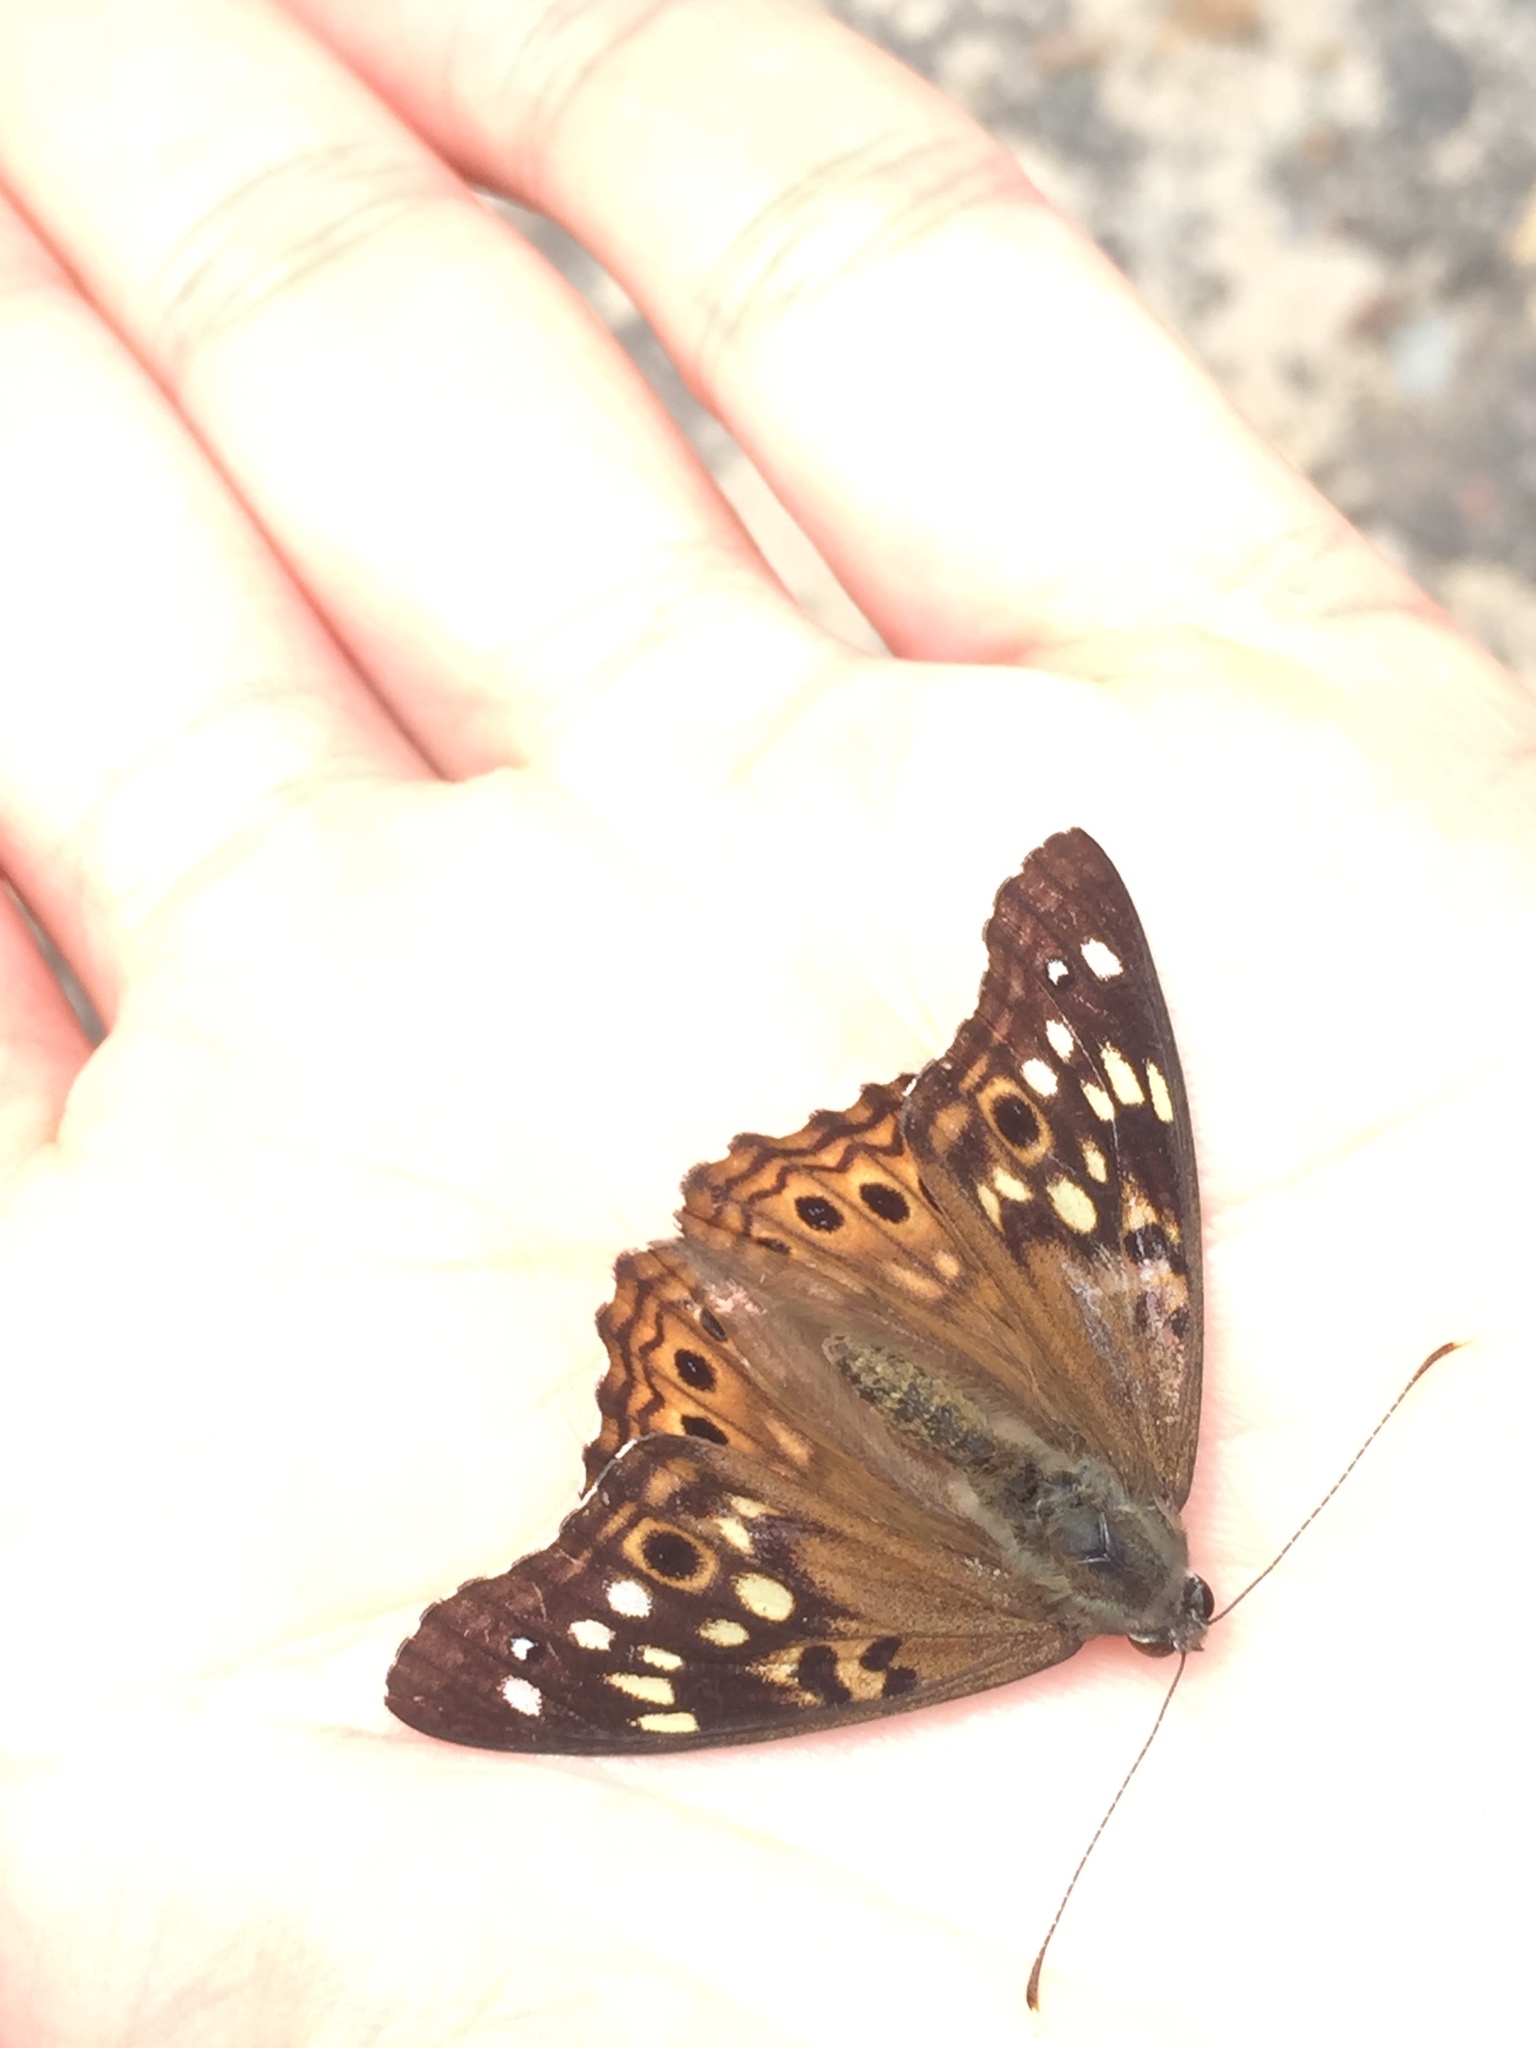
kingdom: Animalia
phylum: Arthropoda
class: Insecta
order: Lepidoptera
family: Nymphalidae
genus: Asterocampa
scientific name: Asterocampa celtis
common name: Hackberry emperor
